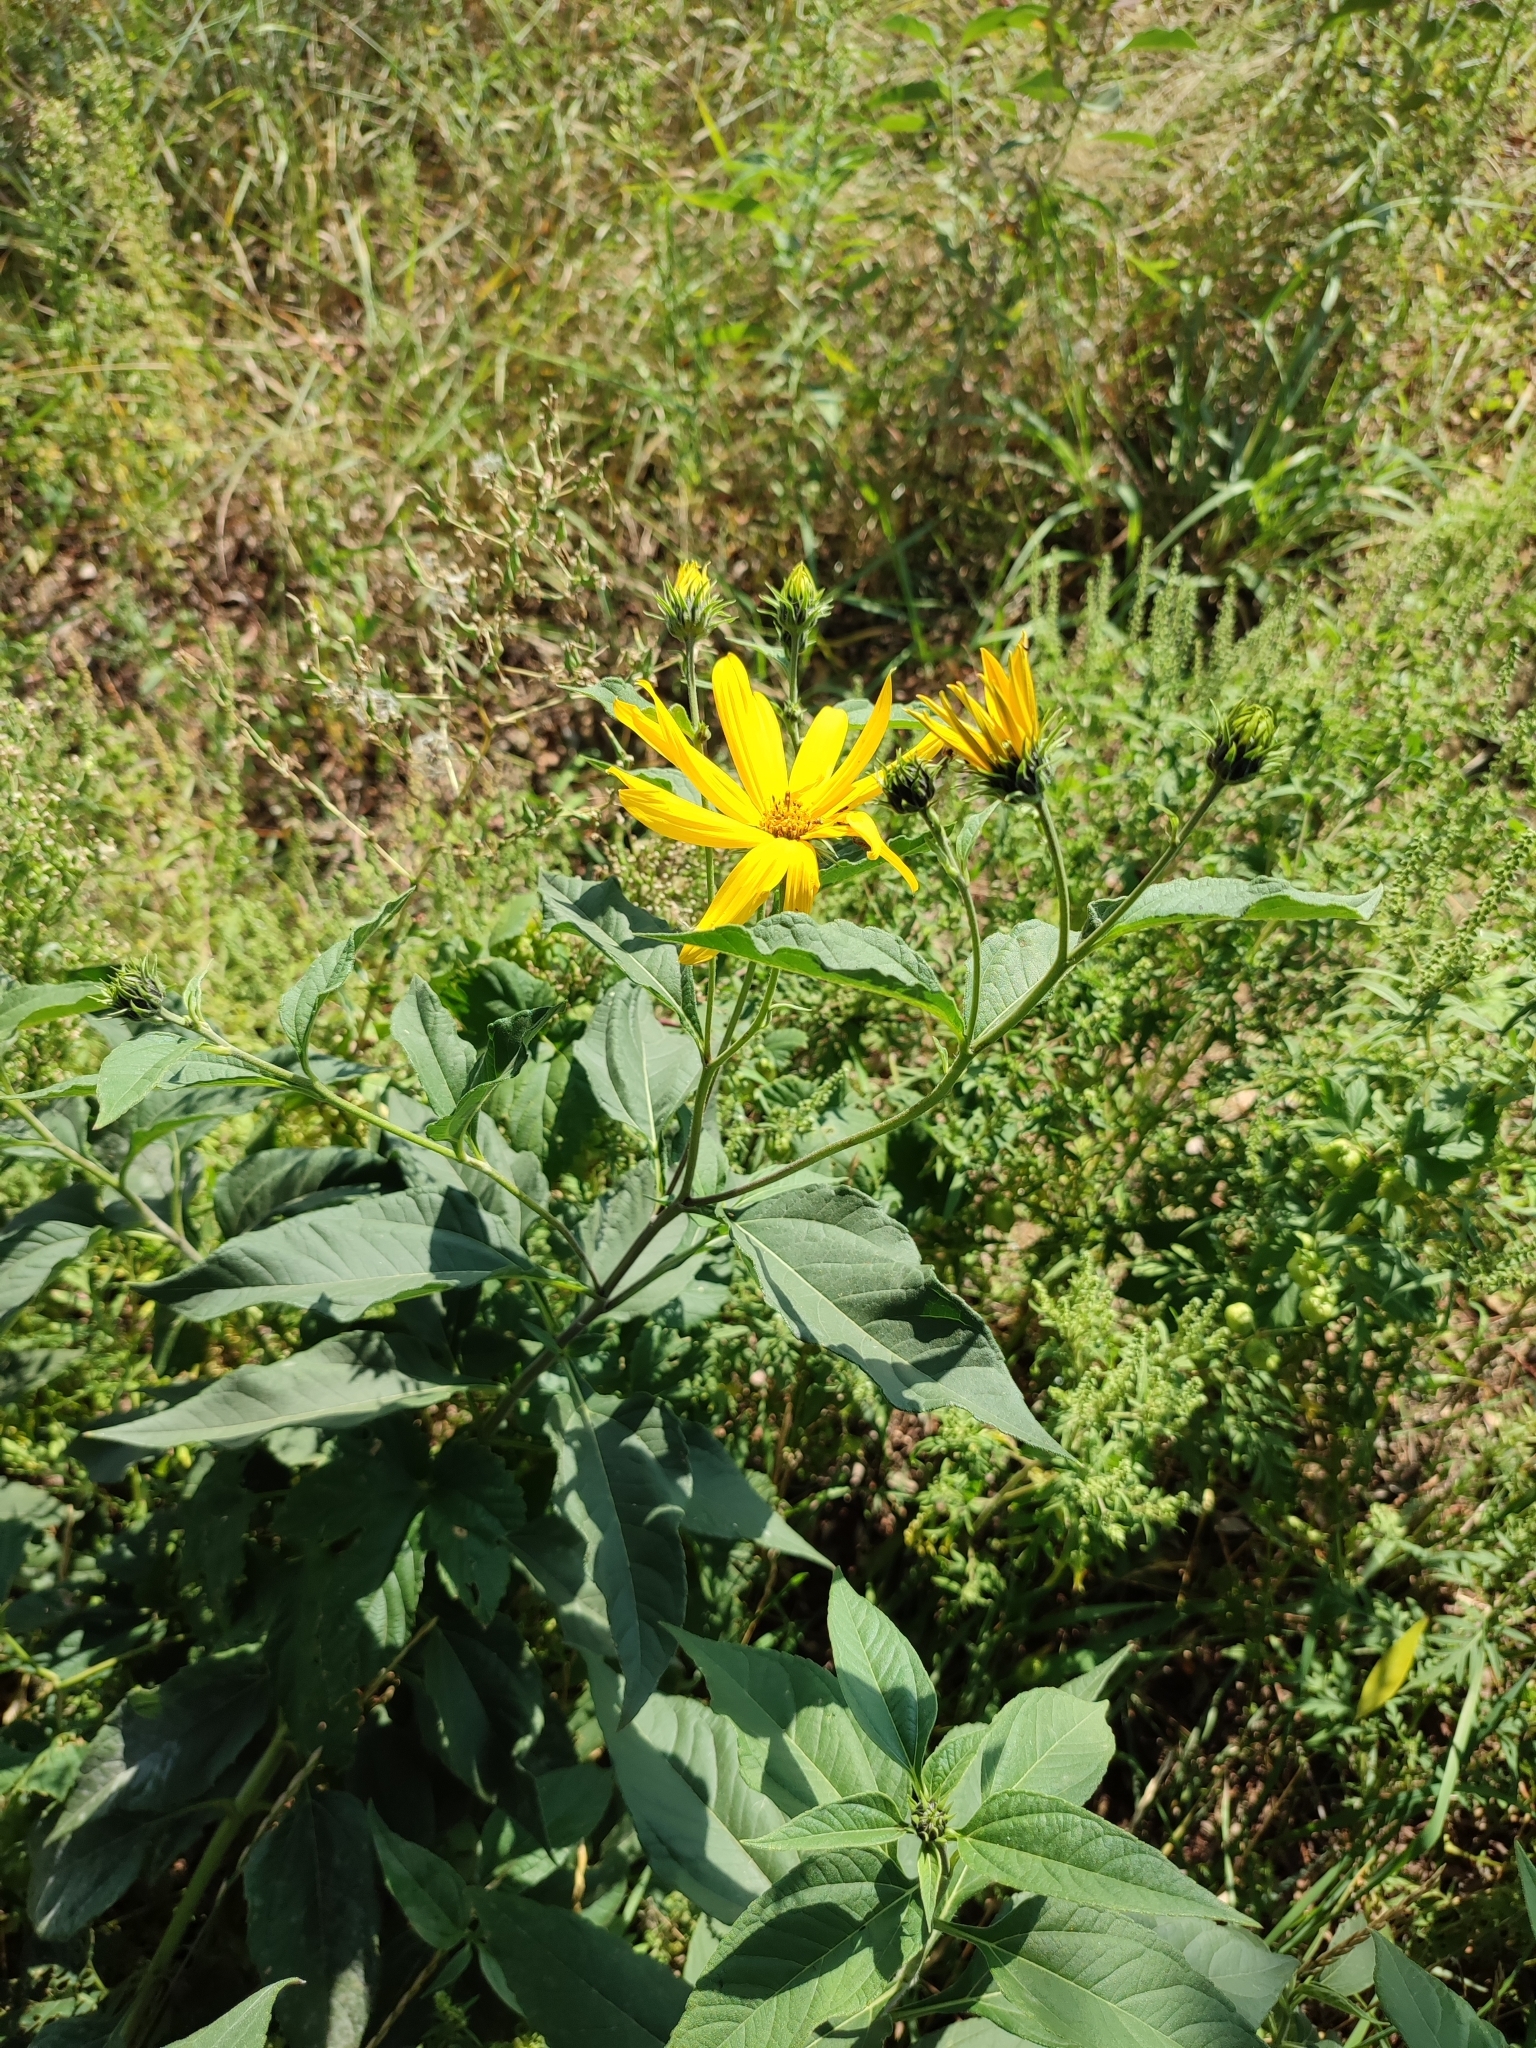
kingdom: Plantae
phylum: Tracheophyta
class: Magnoliopsida
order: Asterales
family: Asteraceae
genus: Helianthus
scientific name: Helianthus tuberosus
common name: Jerusalem artichoke
